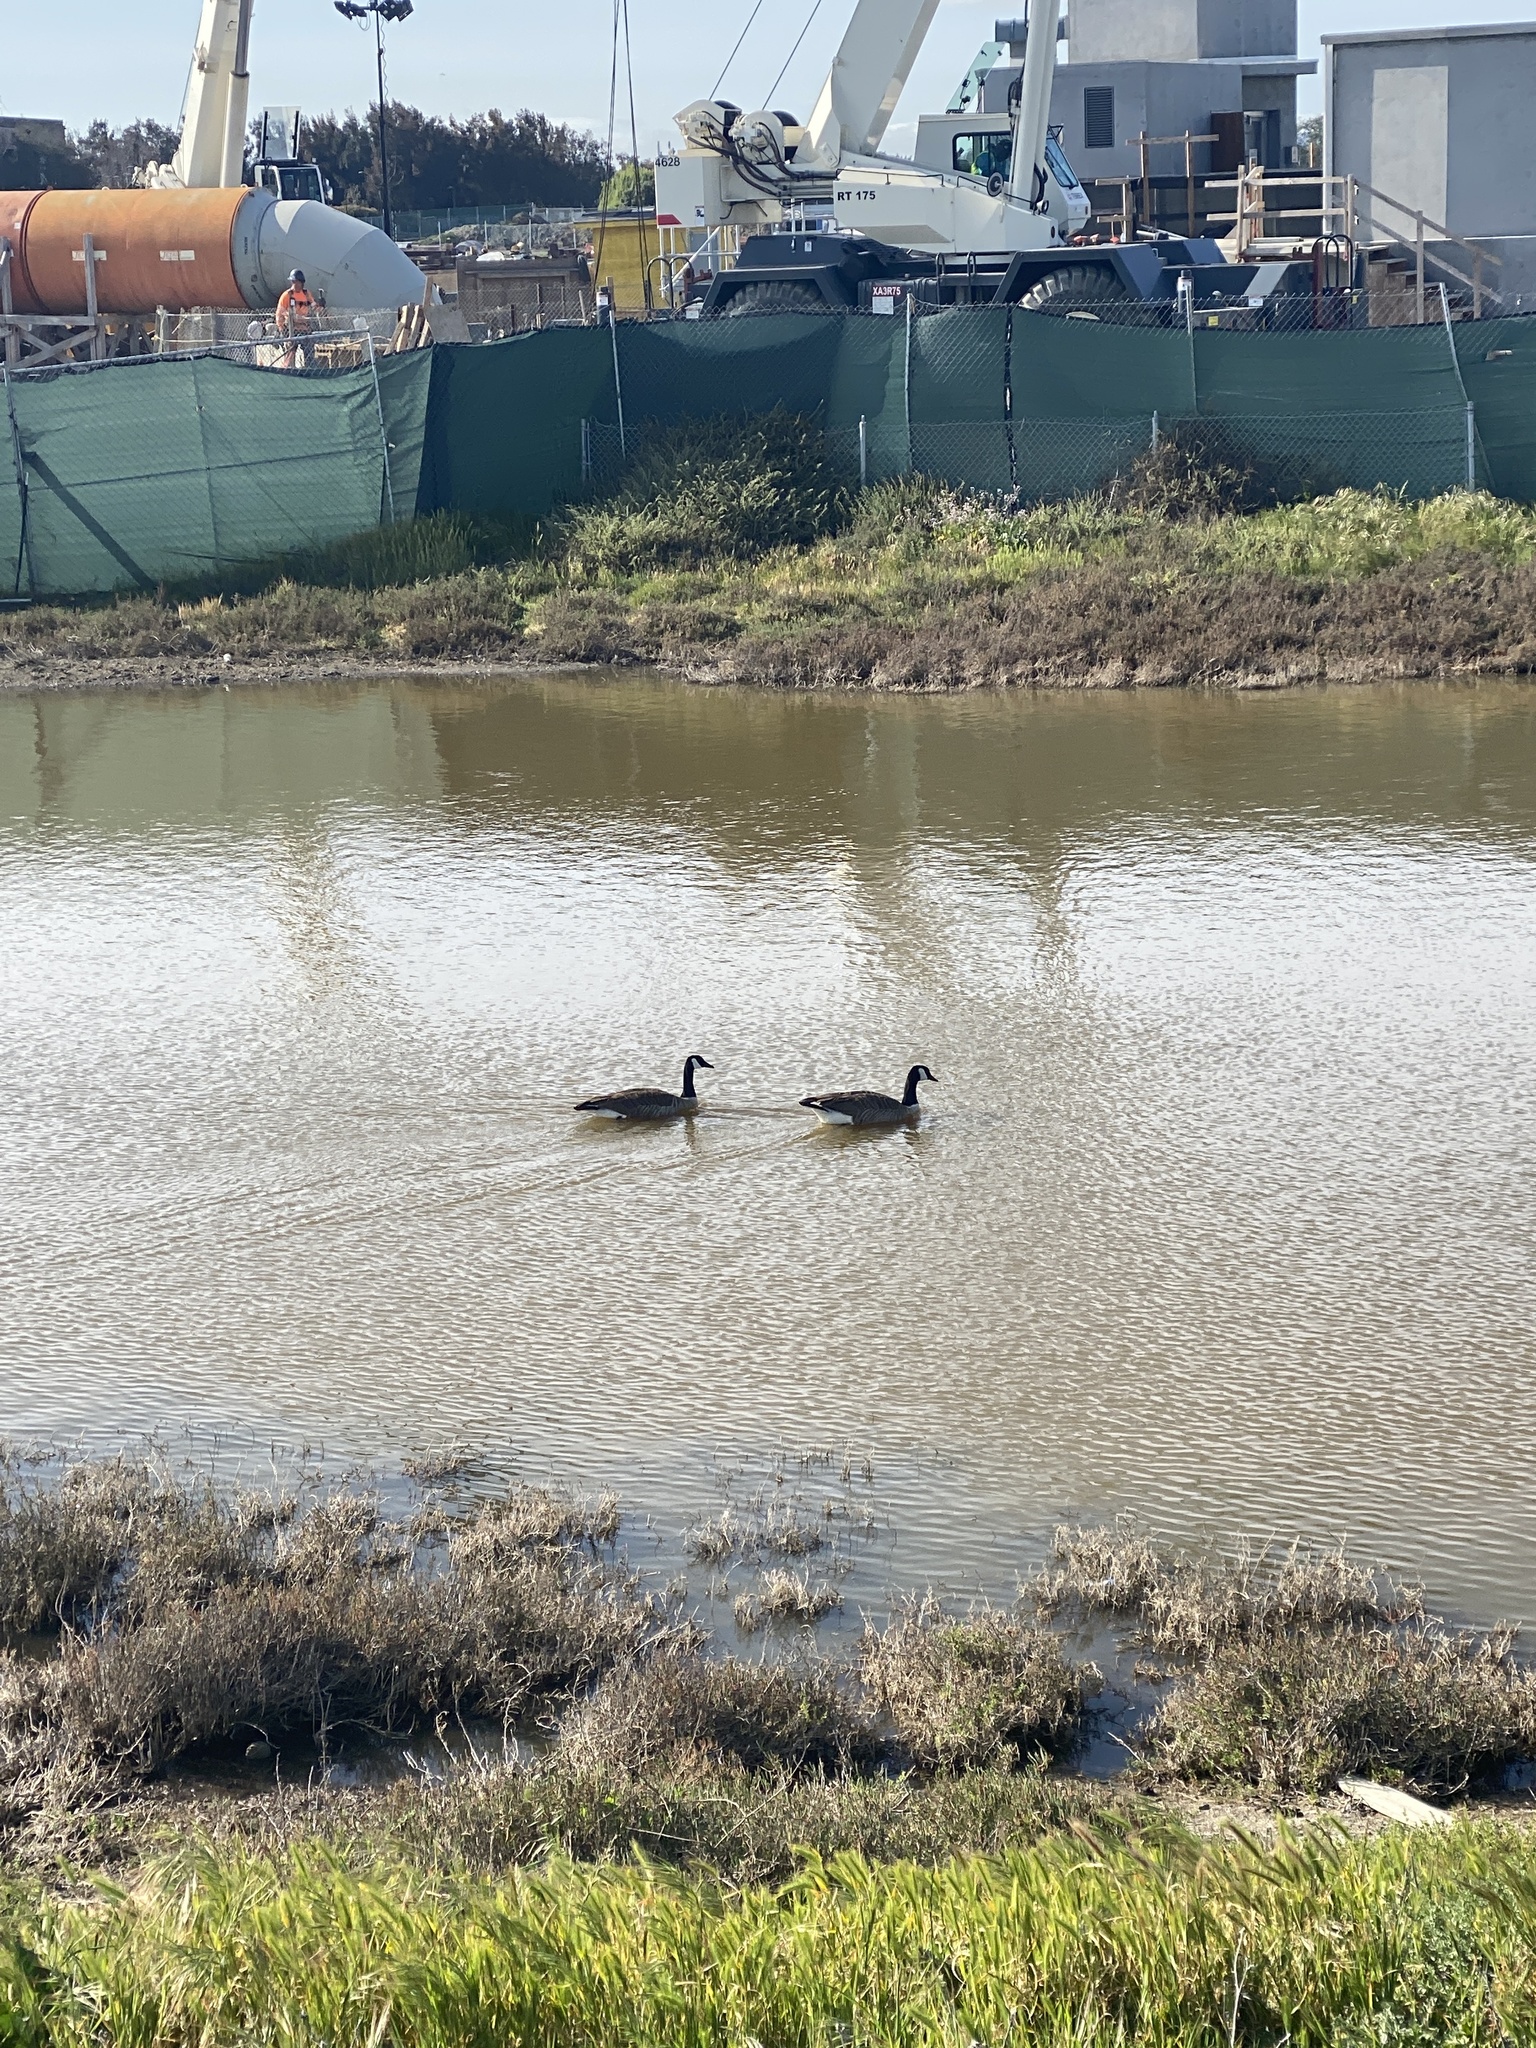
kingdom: Animalia
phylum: Chordata
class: Aves
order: Anseriformes
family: Anatidae
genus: Branta
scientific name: Branta canadensis
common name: Canada goose
